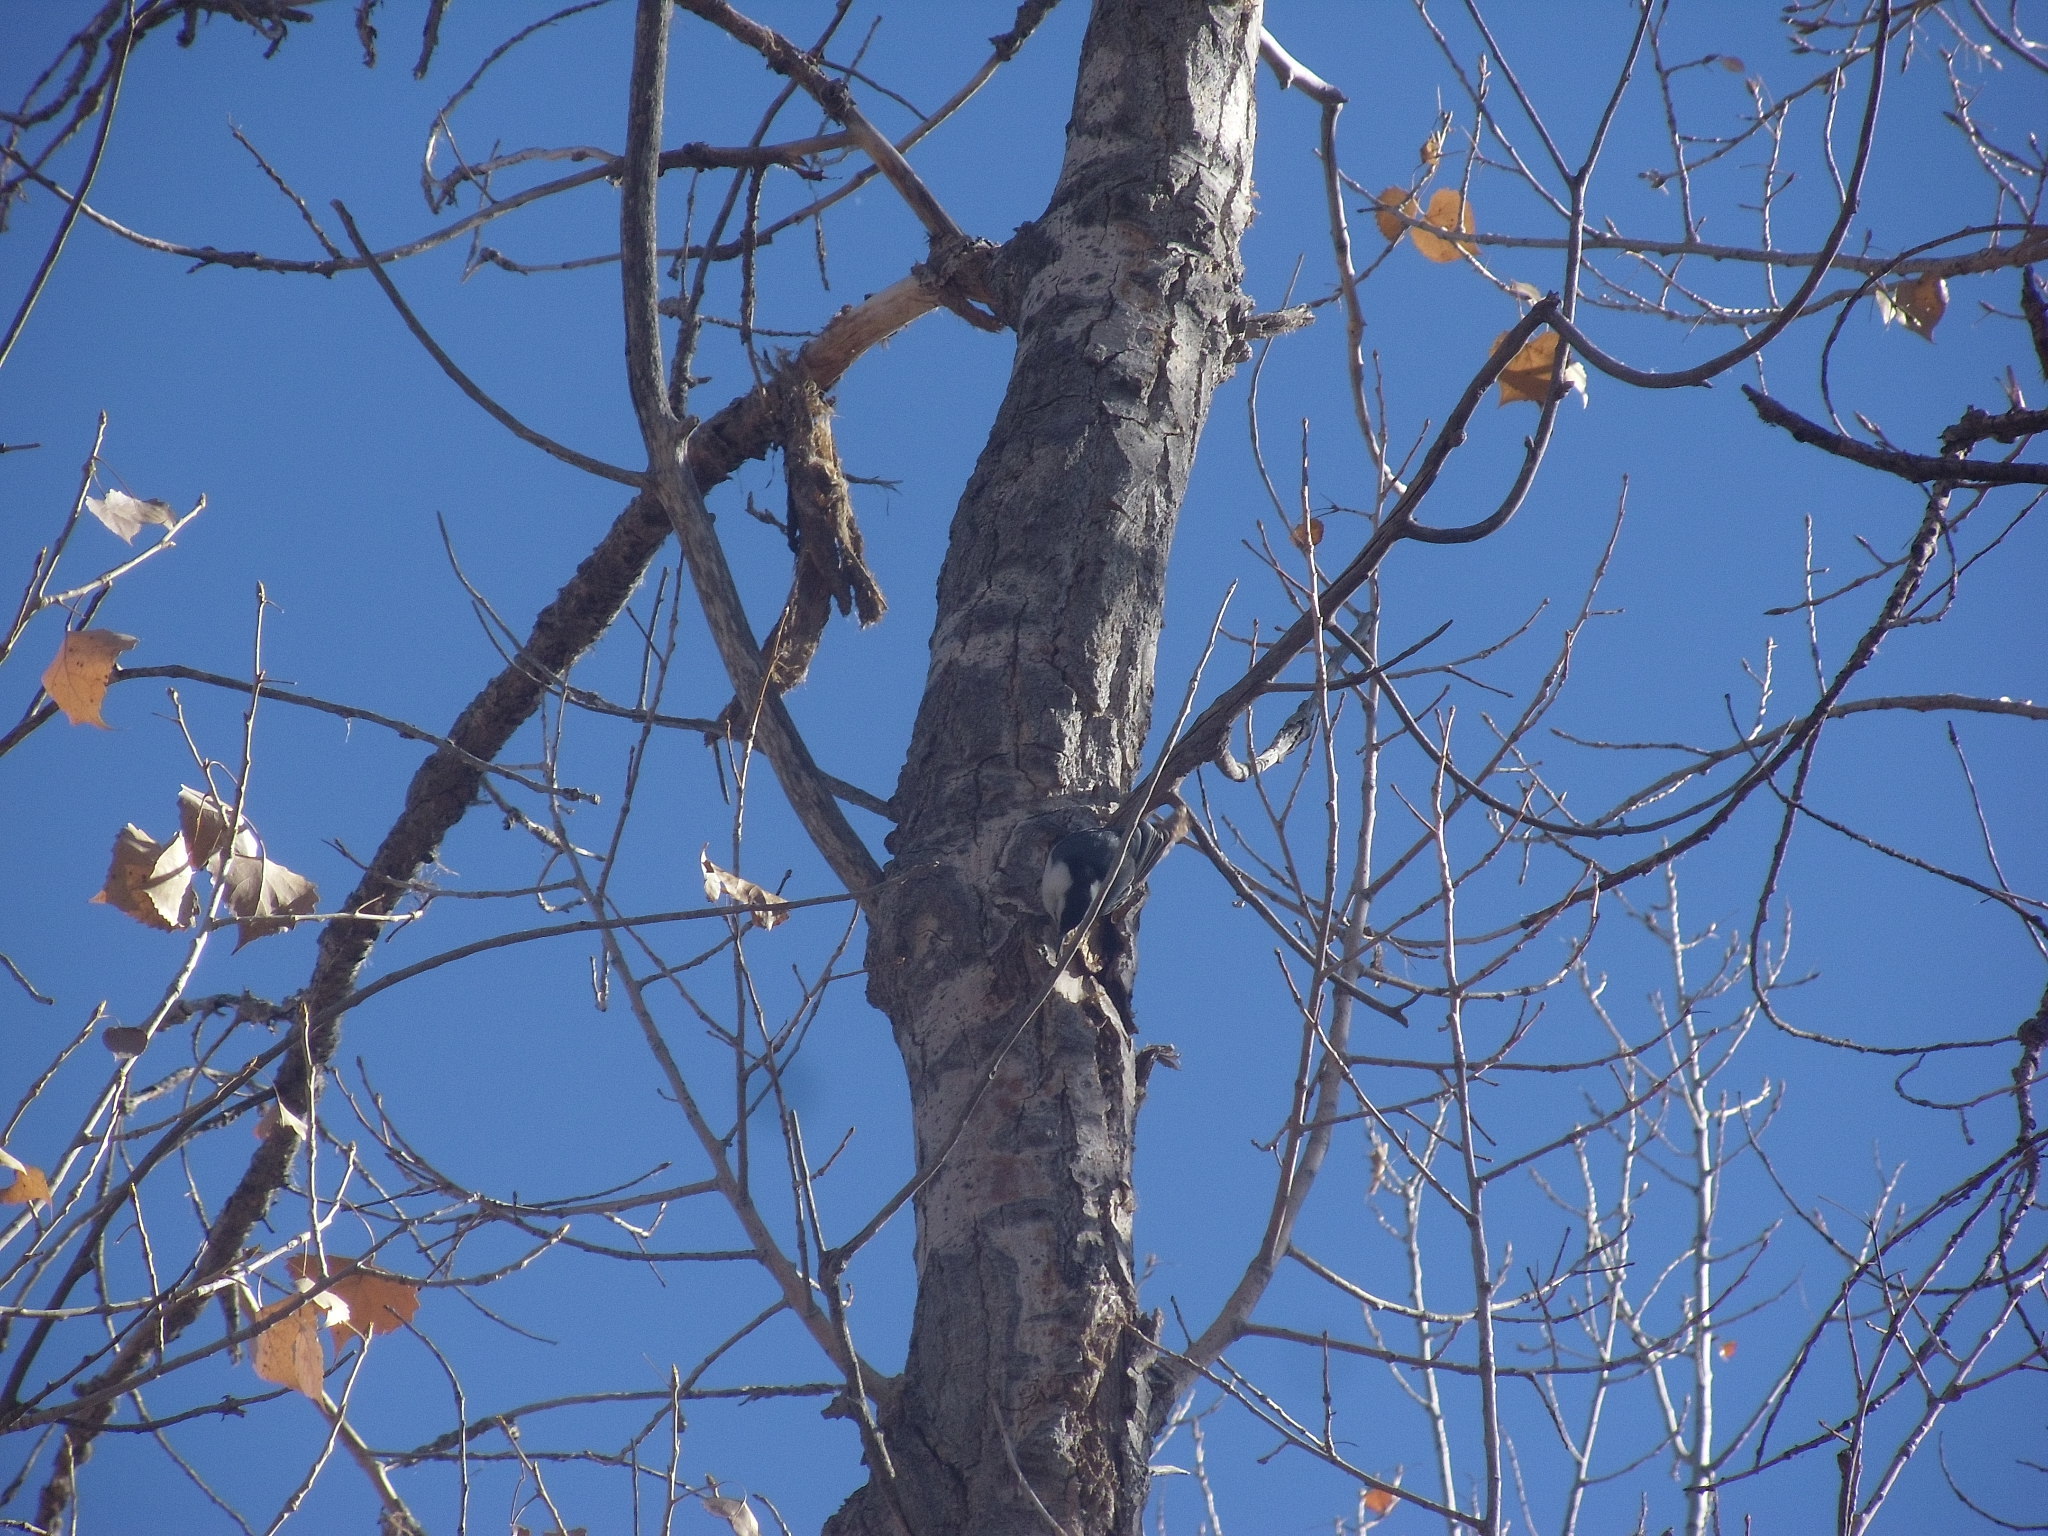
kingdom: Animalia
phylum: Chordata
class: Aves
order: Passeriformes
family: Sittidae
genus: Sitta
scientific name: Sitta carolinensis
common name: White-breasted nuthatch
